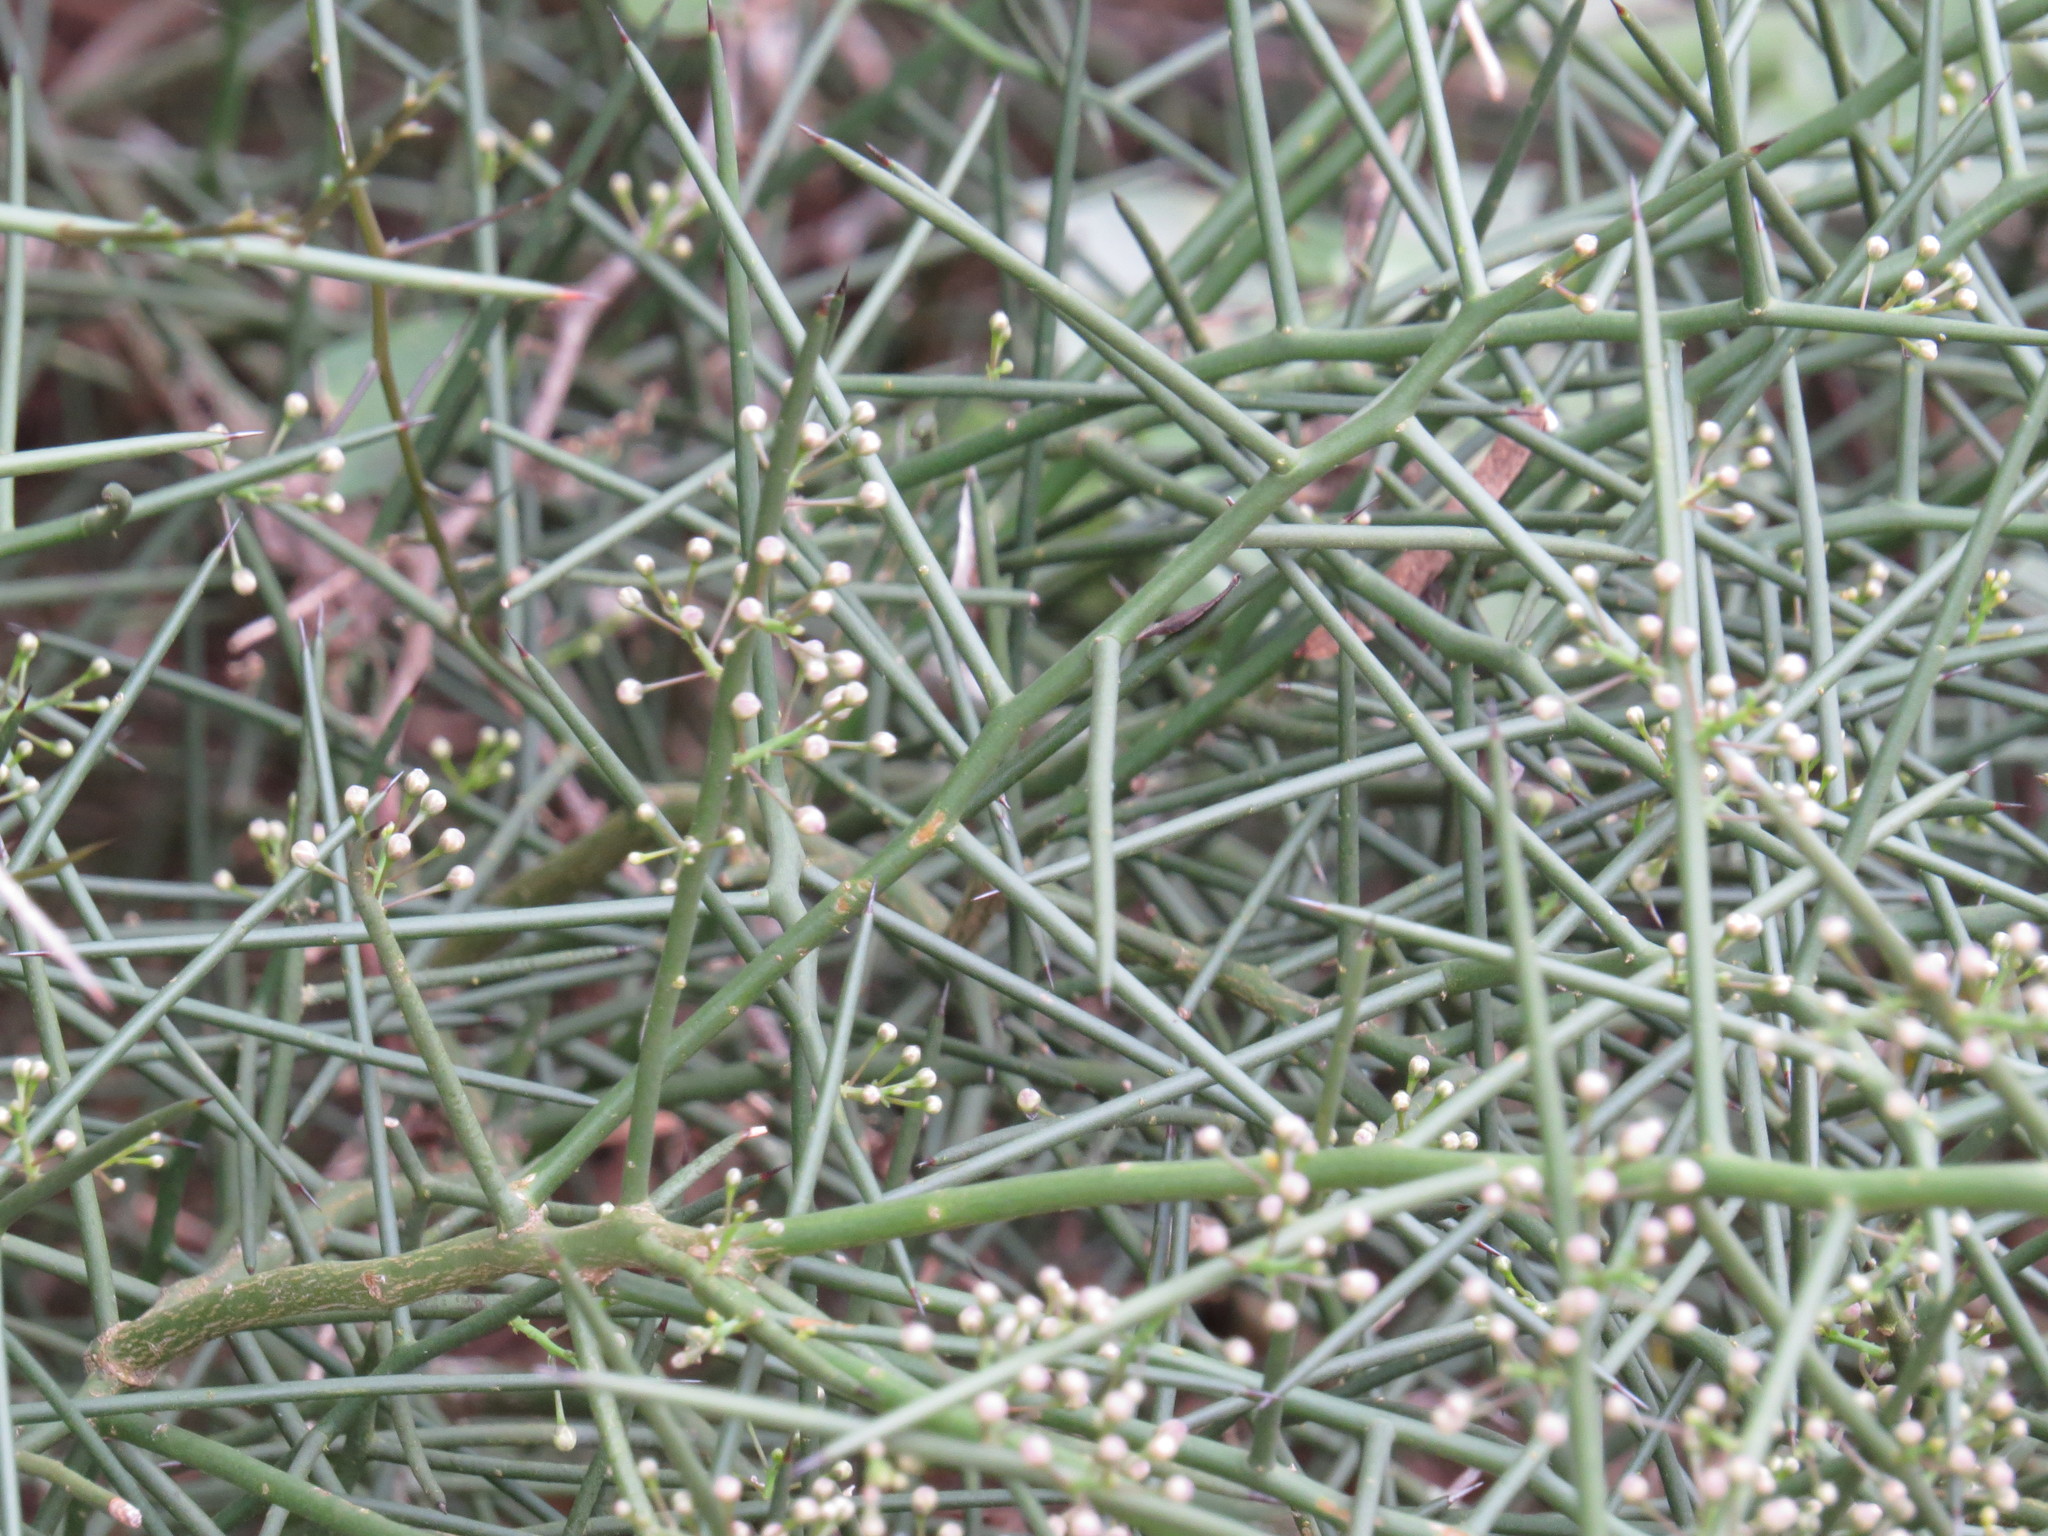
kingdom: Plantae
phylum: Tracheophyta
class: Magnoliopsida
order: Brassicales
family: Koeberliniaceae
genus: Koeberlinia
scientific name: Koeberlinia spinosa
